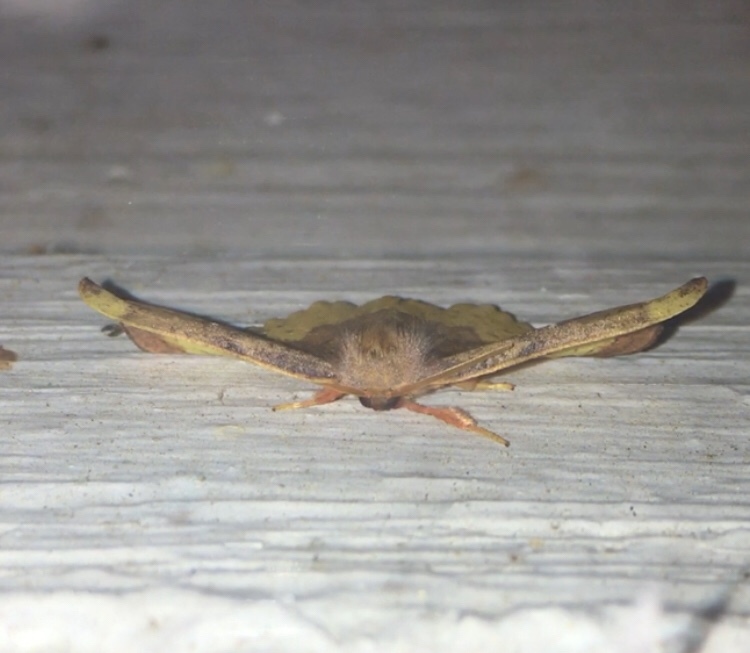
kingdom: Animalia
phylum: Arthropoda
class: Insecta
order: Lepidoptera
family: Drepanidae
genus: Oreta
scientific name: Oreta rosea
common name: Rose hooktip
